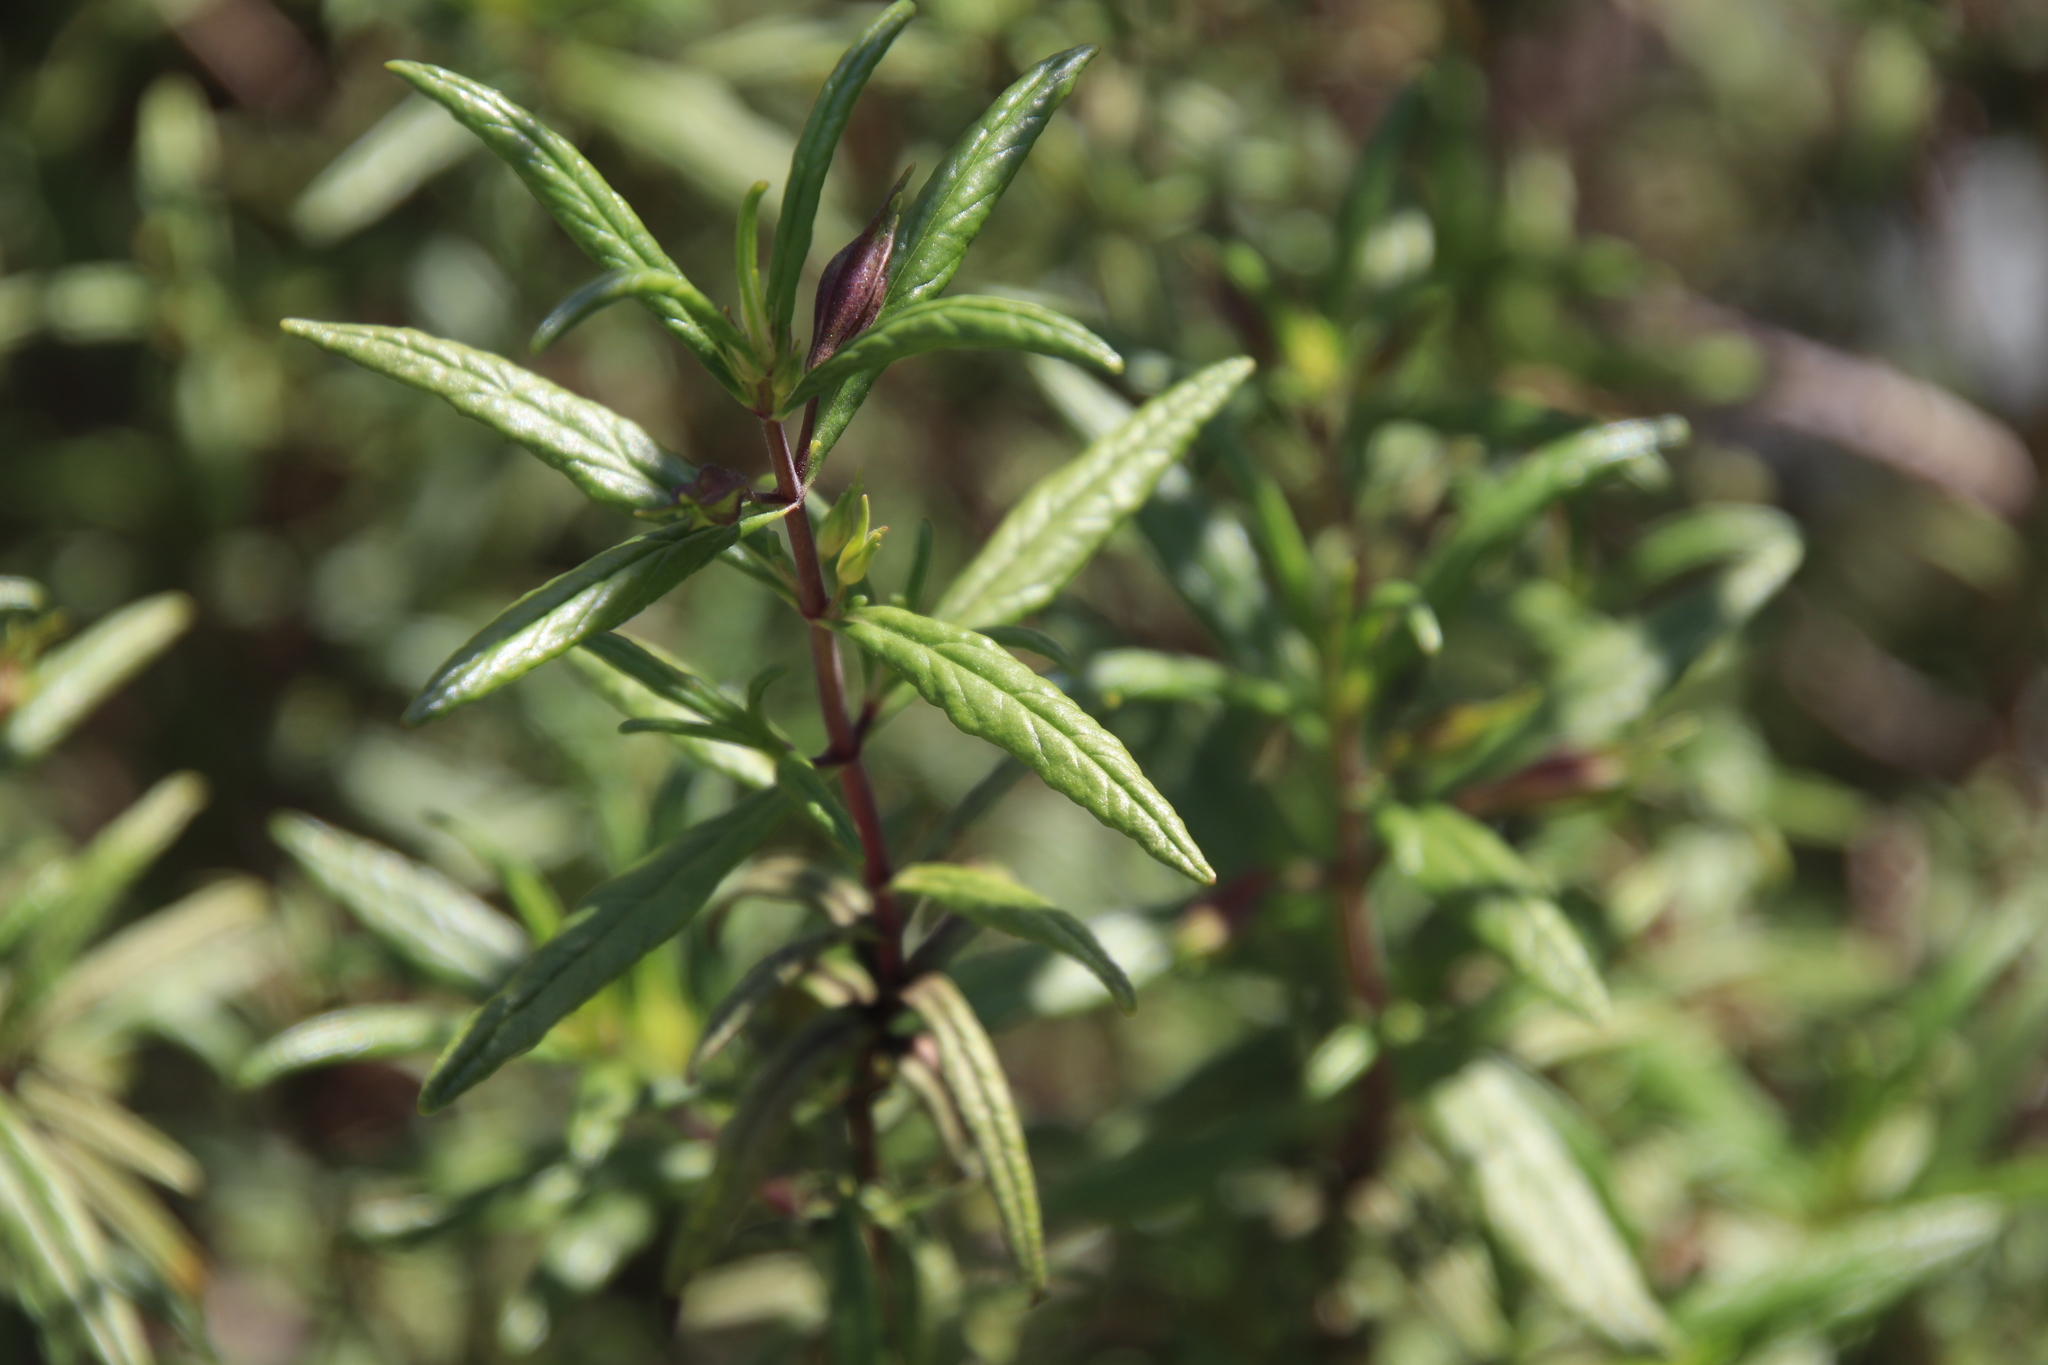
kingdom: Plantae
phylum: Tracheophyta
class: Magnoliopsida
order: Lamiales
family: Phrymaceae
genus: Diplacus
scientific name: Diplacus puniceus
